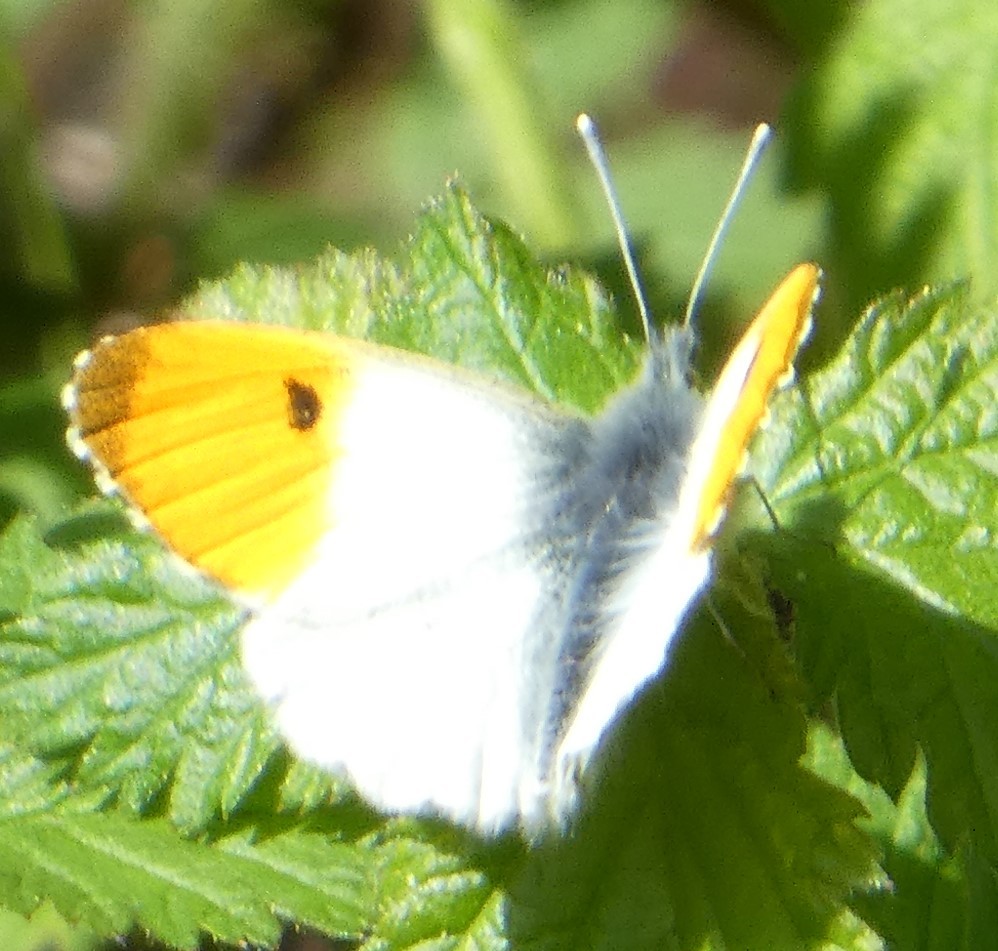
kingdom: Animalia
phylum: Arthropoda
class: Insecta
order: Lepidoptera
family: Pieridae
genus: Anthocharis
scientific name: Anthocharis cardamines
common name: Orange-tip
